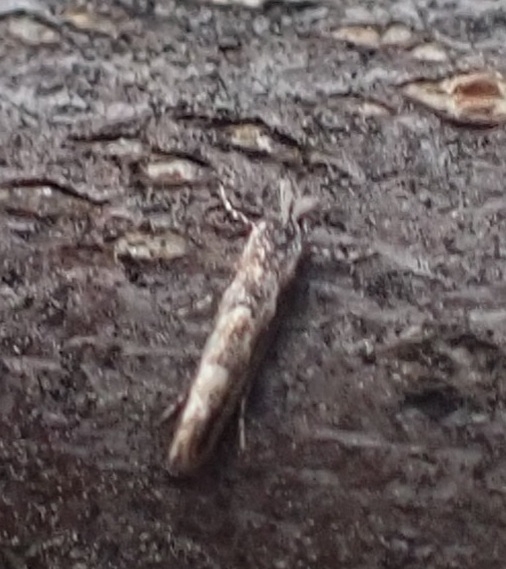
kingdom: Animalia
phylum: Arthropoda
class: Insecta
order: Lepidoptera
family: Gracillariidae
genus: Phyllonorycter
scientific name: Phyllonorycter issikii
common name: Linden midget
